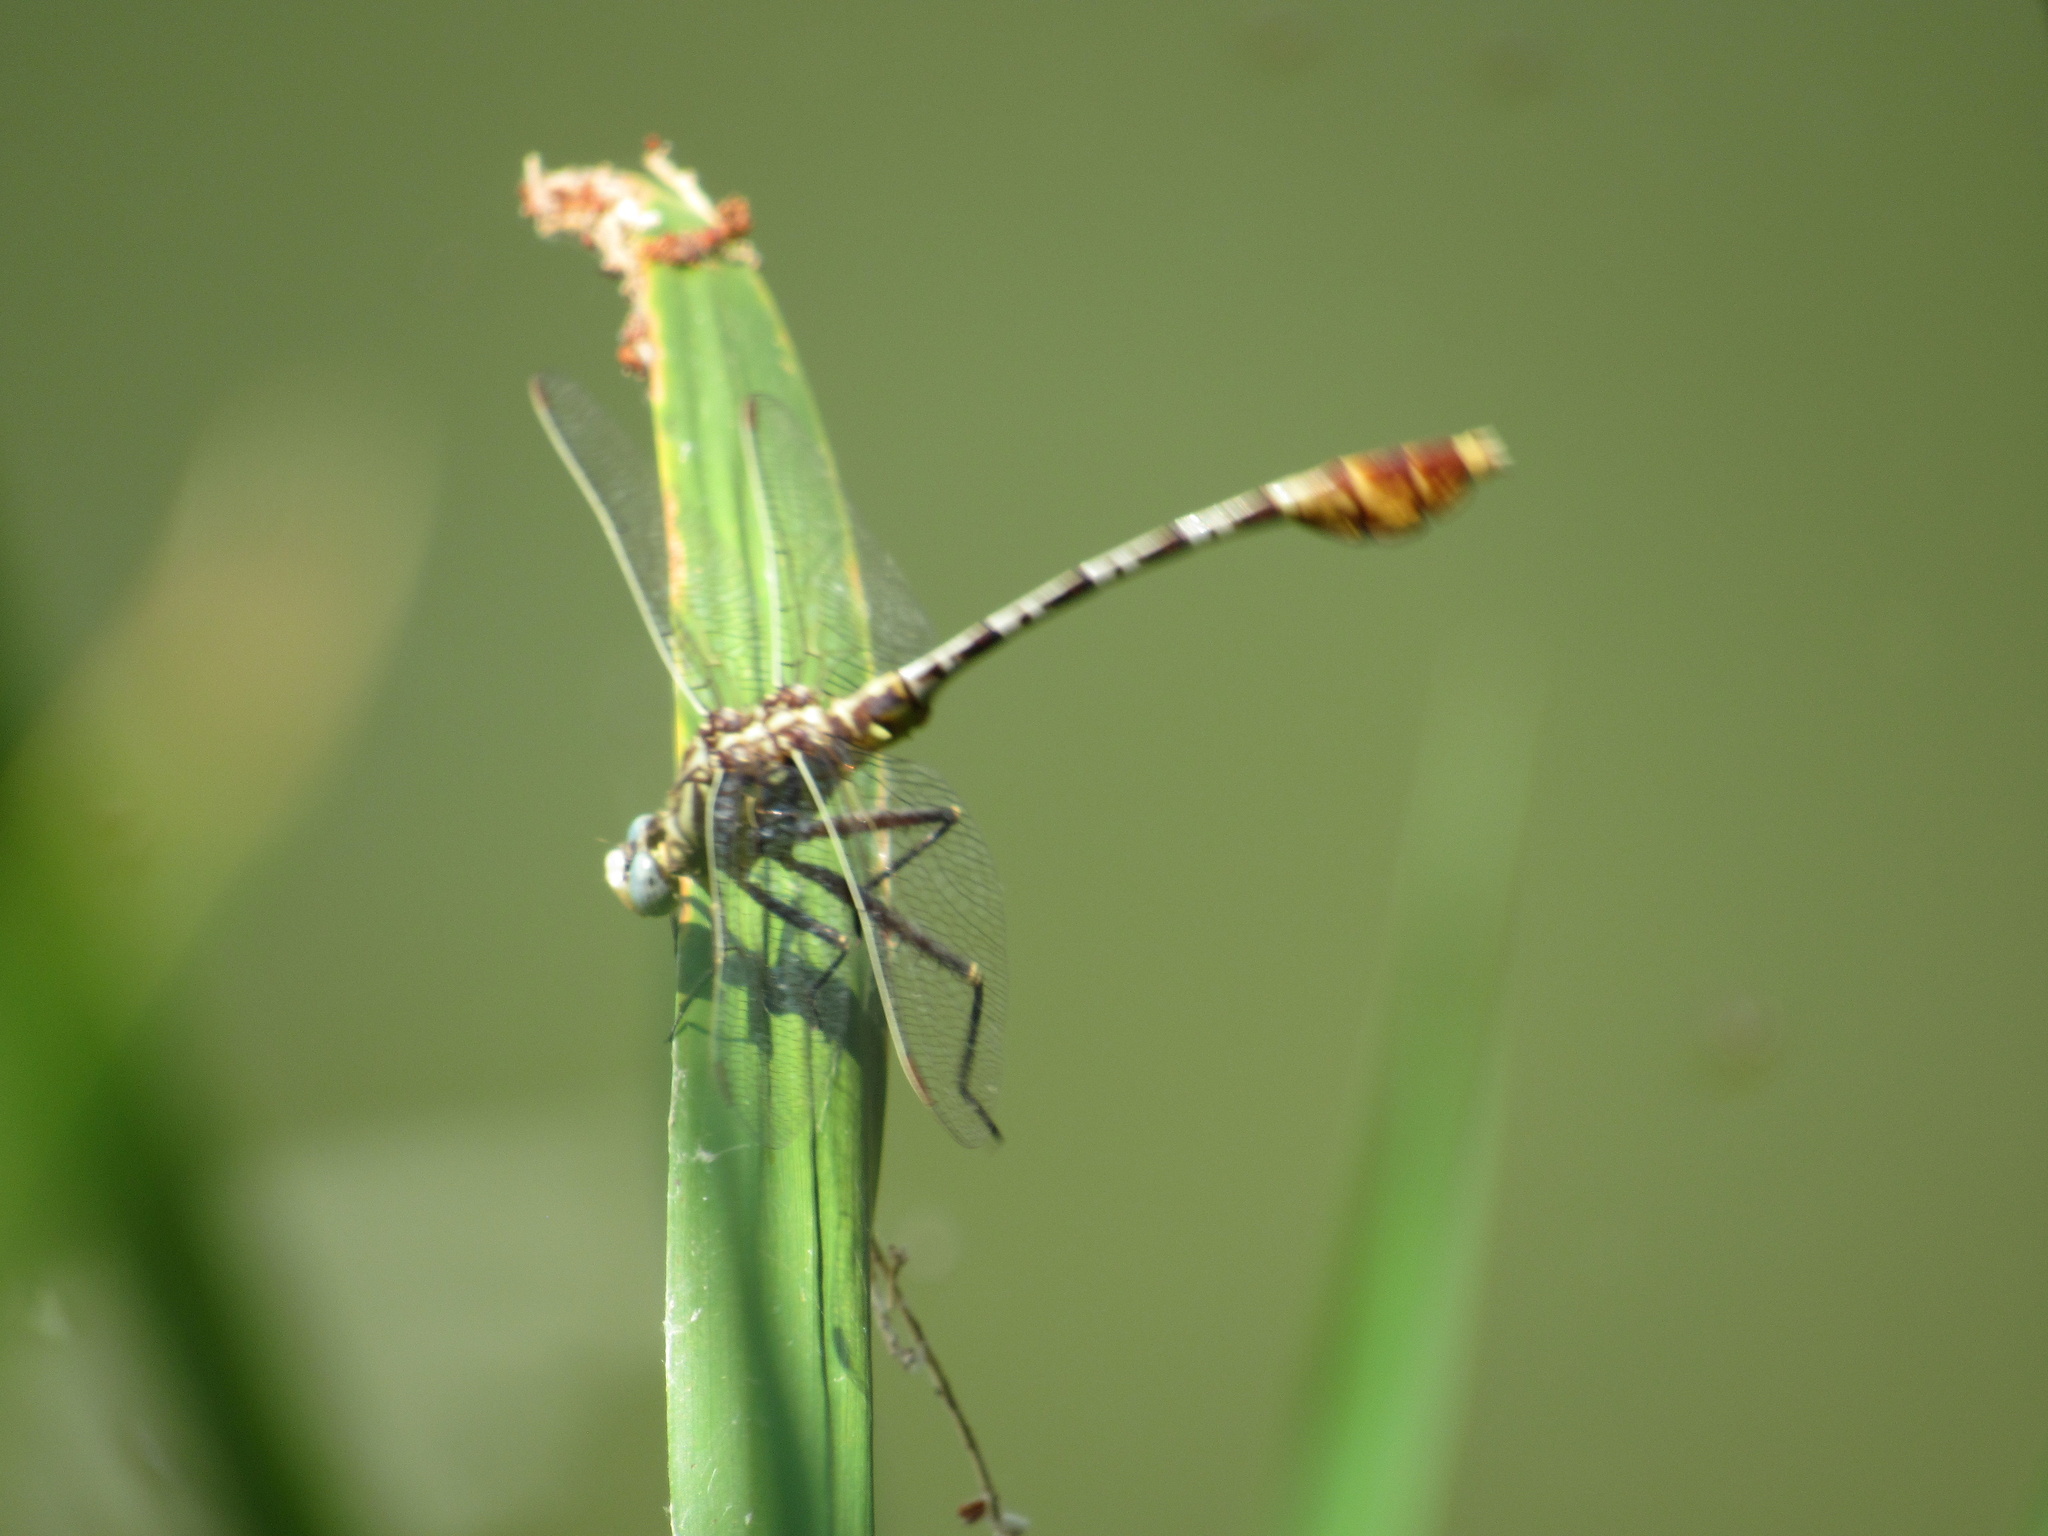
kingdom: Animalia
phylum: Arthropoda
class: Insecta
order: Odonata
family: Gomphidae
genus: Dromogomphus
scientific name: Dromogomphus spoliatus
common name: Flag-tailed spinyleg
